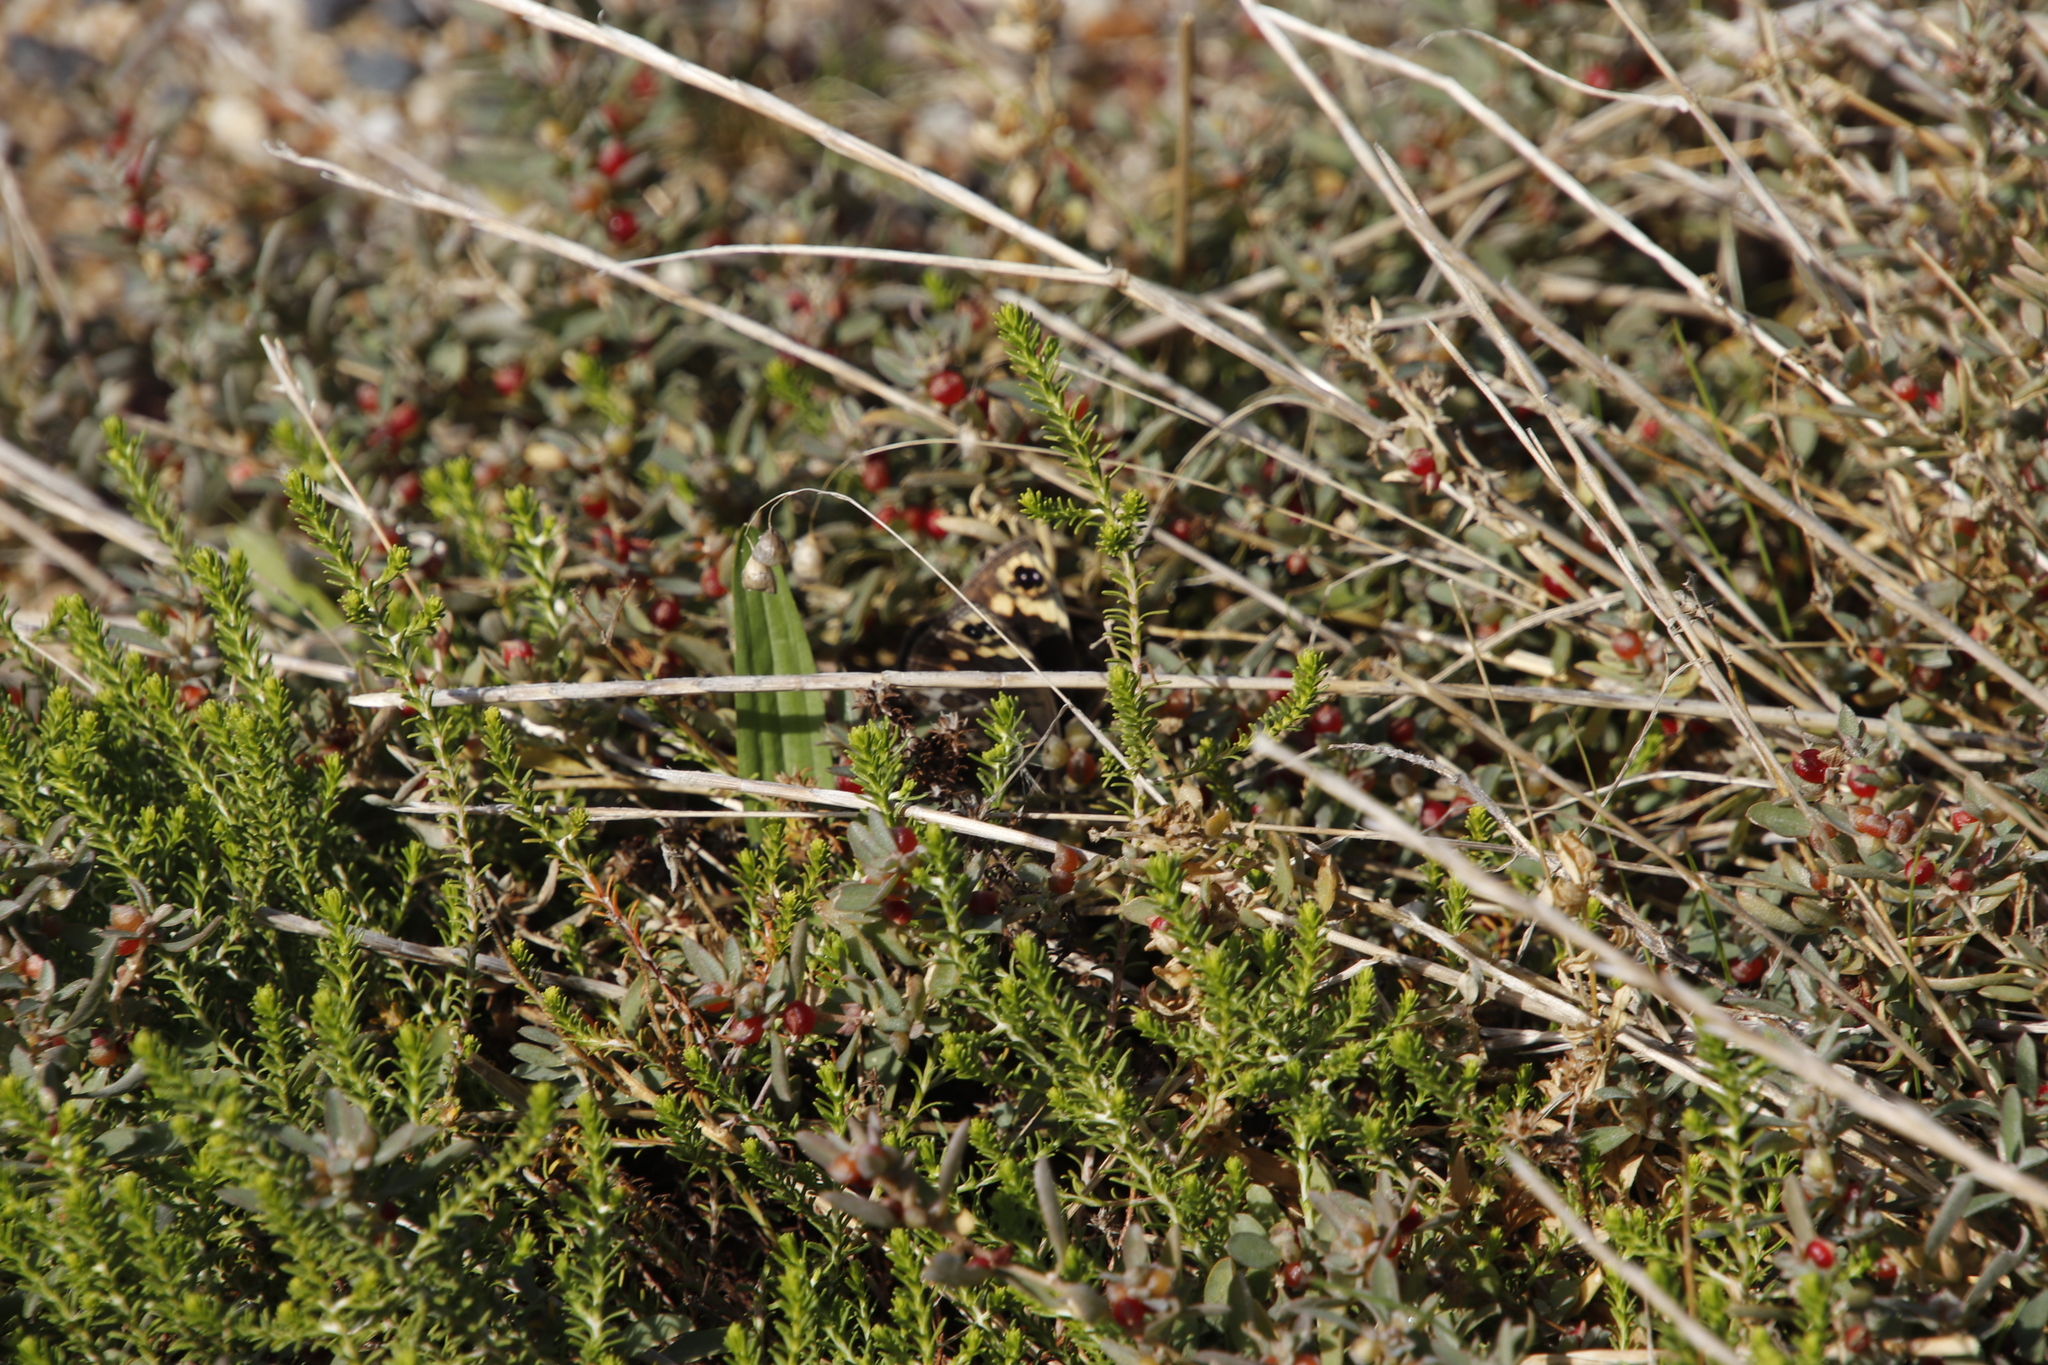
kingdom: Animalia
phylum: Arthropoda
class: Insecta
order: Lepidoptera
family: Nymphalidae
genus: Dira
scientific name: Dira clytus
